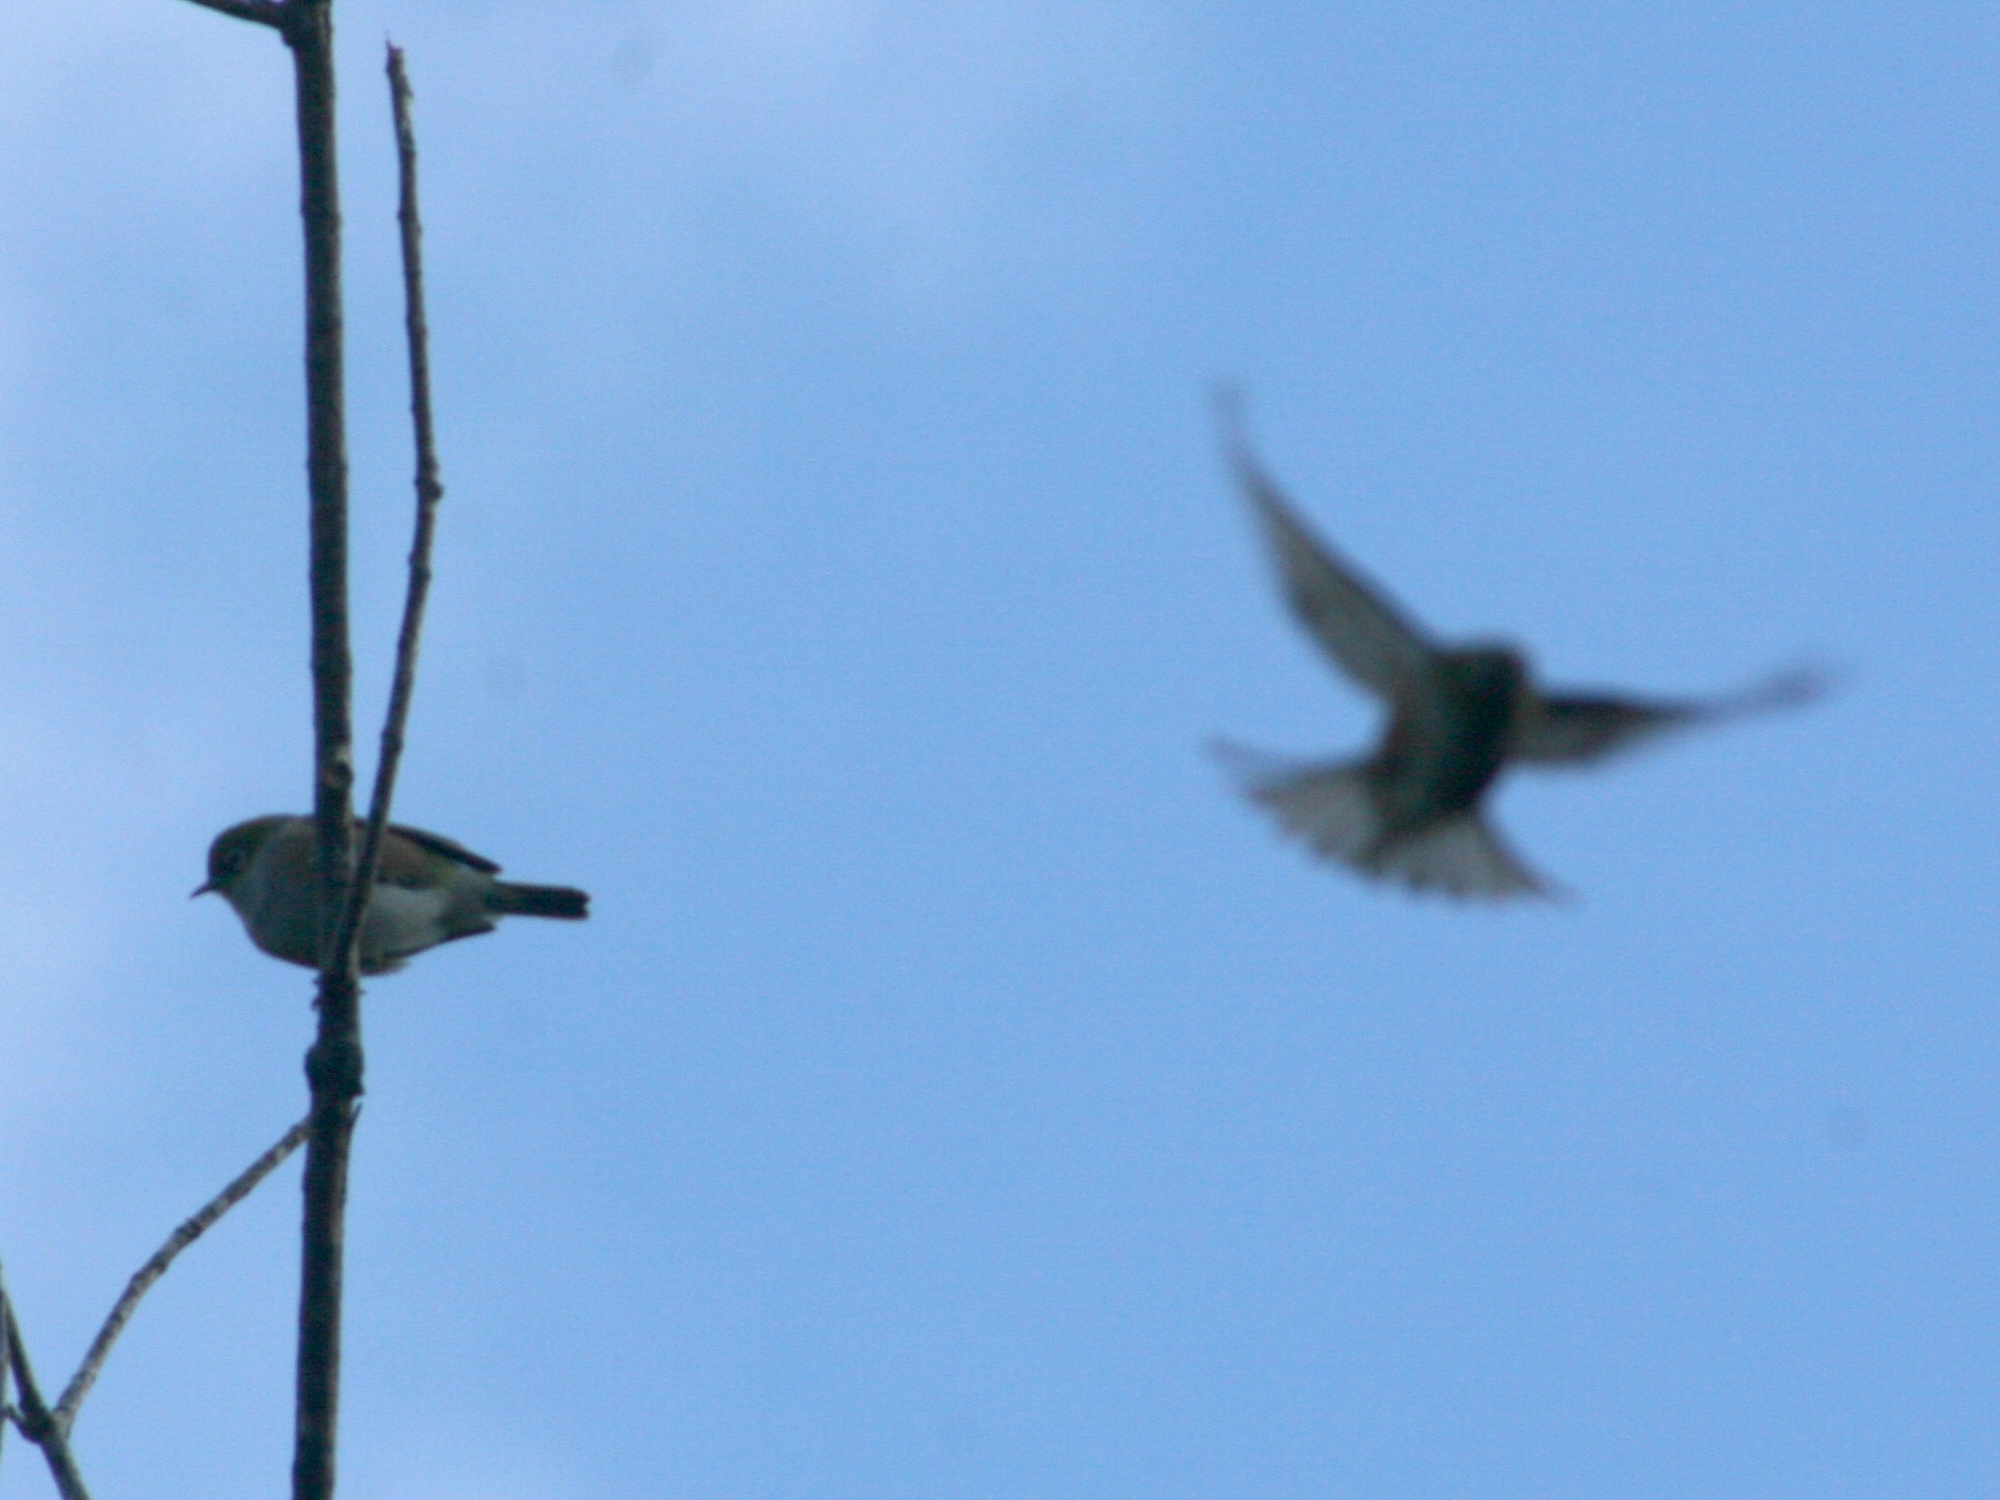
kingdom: Animalia
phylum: Chordata
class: Aves
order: Passeriformes
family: Zosteropidae
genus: Zosterops
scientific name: Zosterops lateralis
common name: Silvereye
